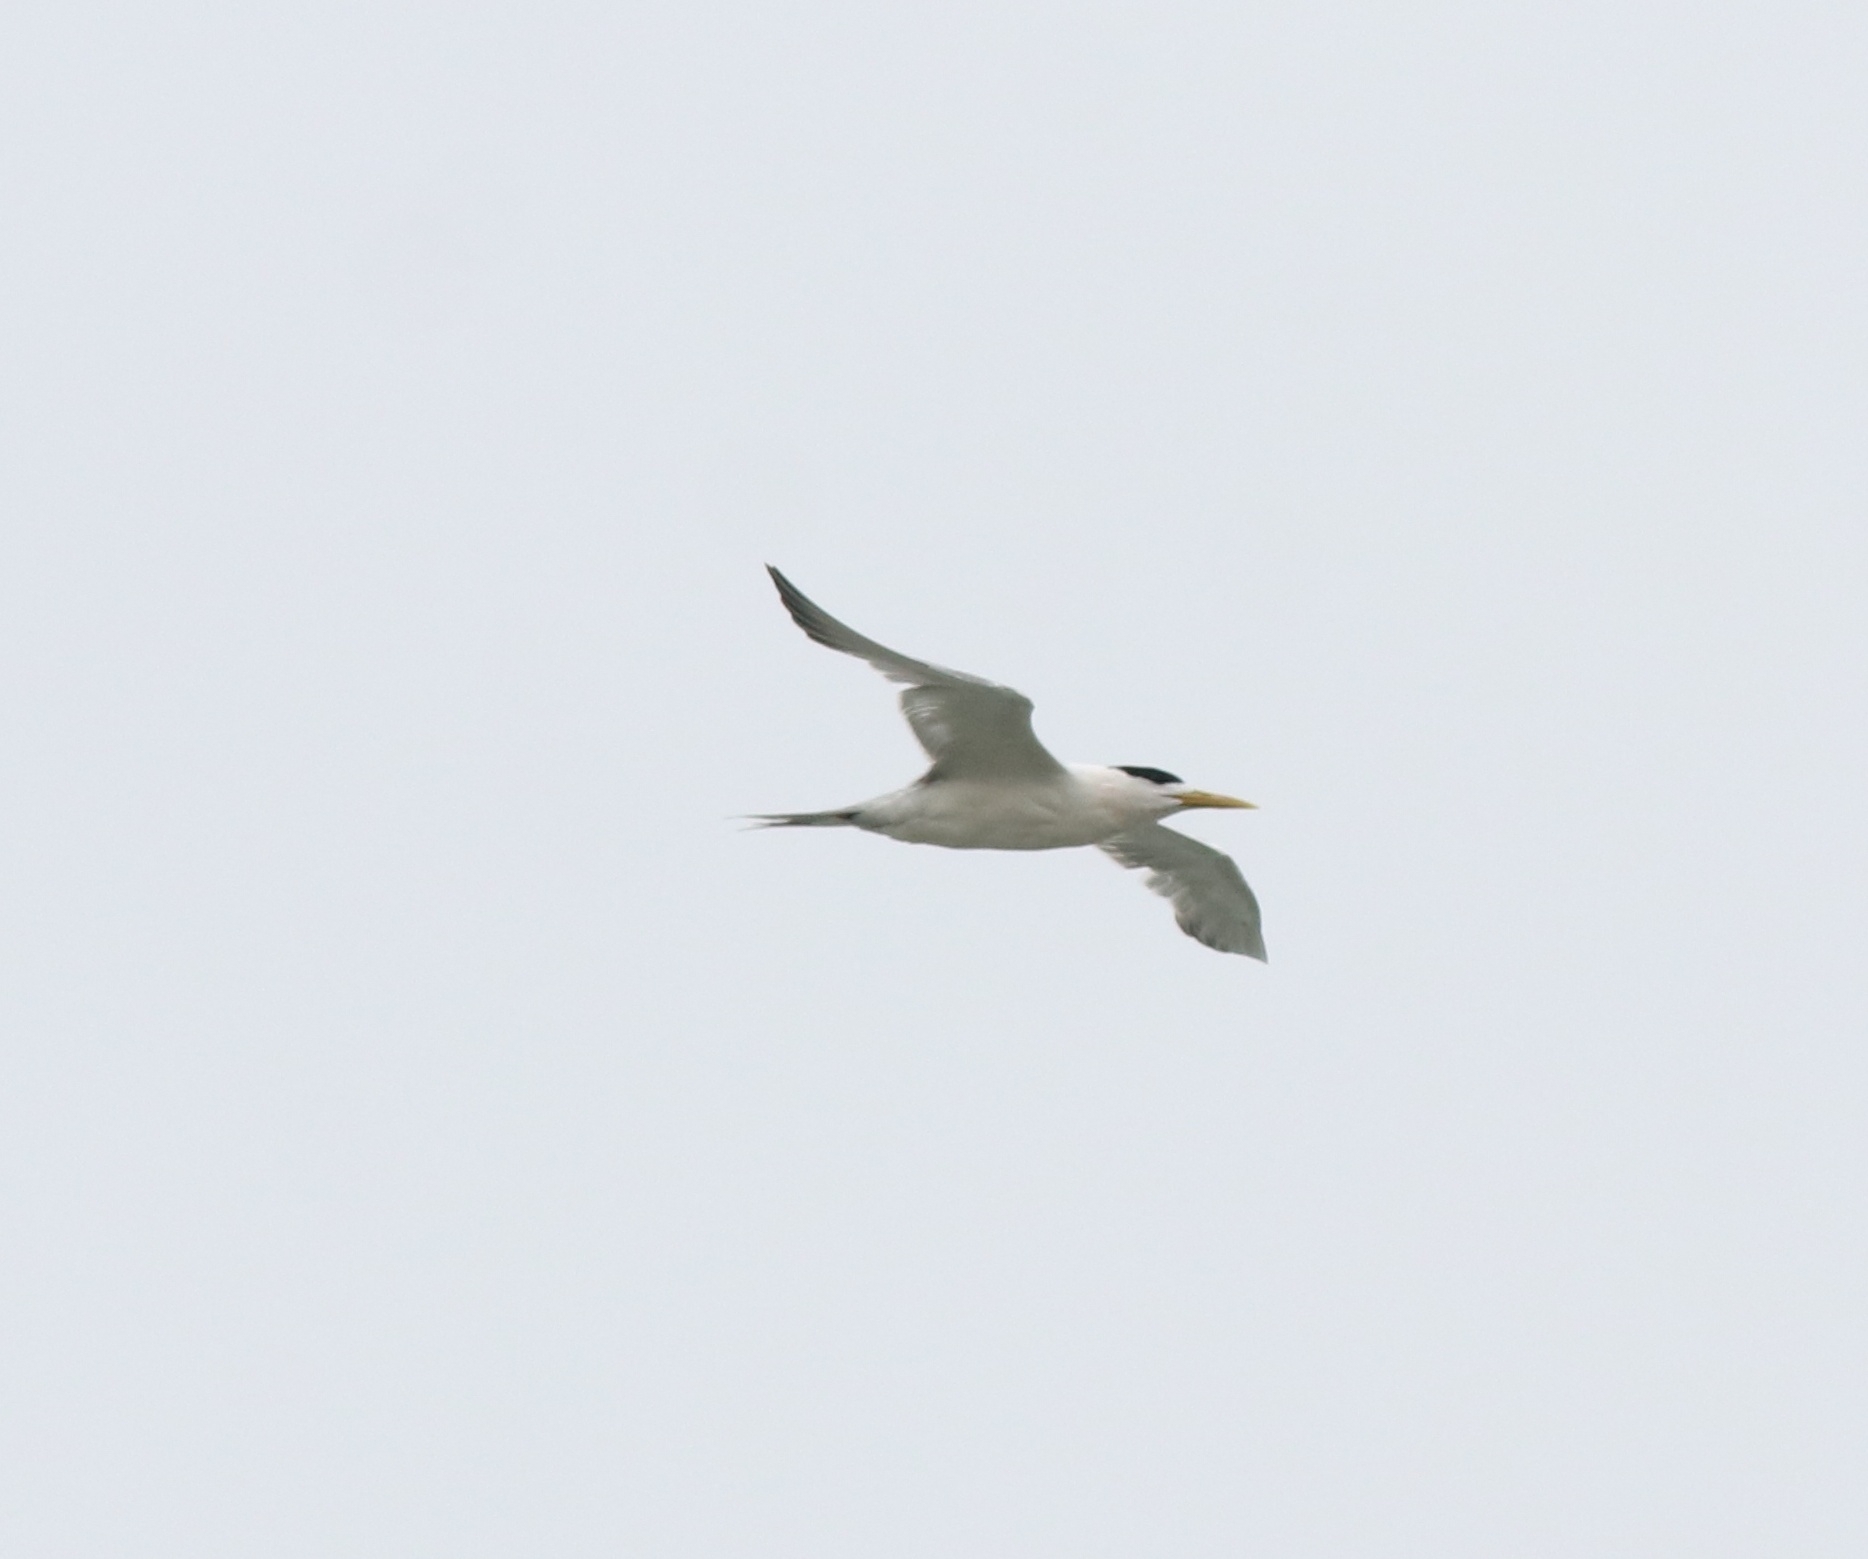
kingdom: Animalia
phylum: Chordata
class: Aves
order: Charadriiformes
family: Laridae
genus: Thalasseus
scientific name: Thalasseus bergii
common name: Greater crested tern
